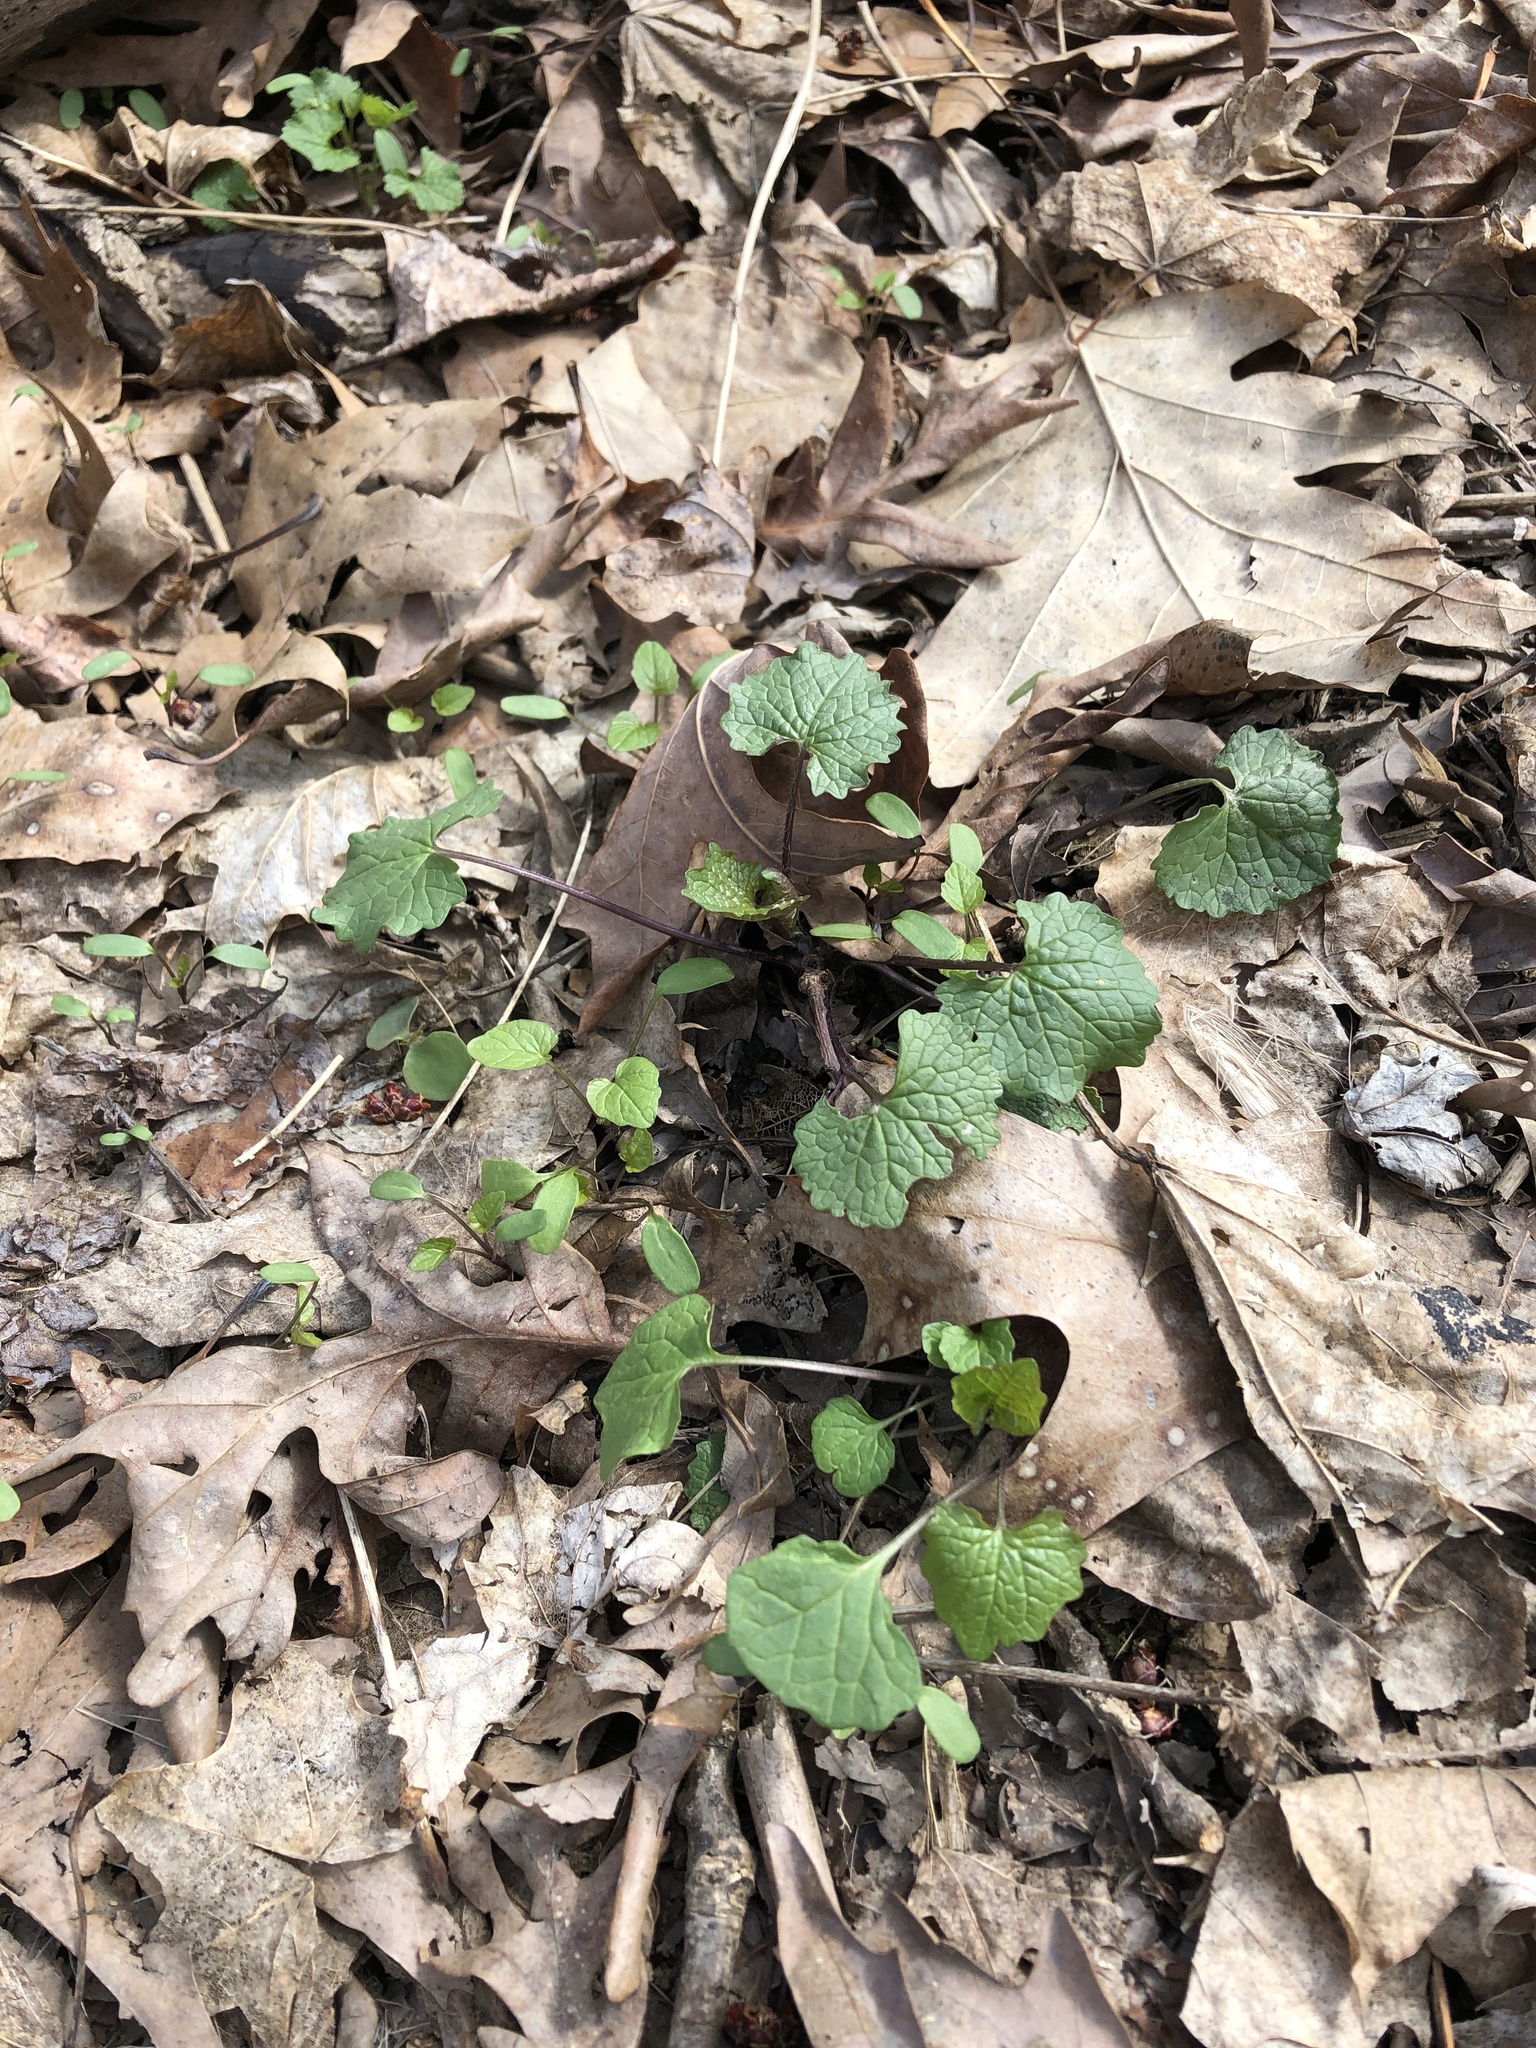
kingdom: Plantae
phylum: Tracheophyta
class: Magnoliopsida
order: Brassicales
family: Brassicaceae
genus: Alliaria
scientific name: Alliaria petiolata
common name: Garlic mustard
